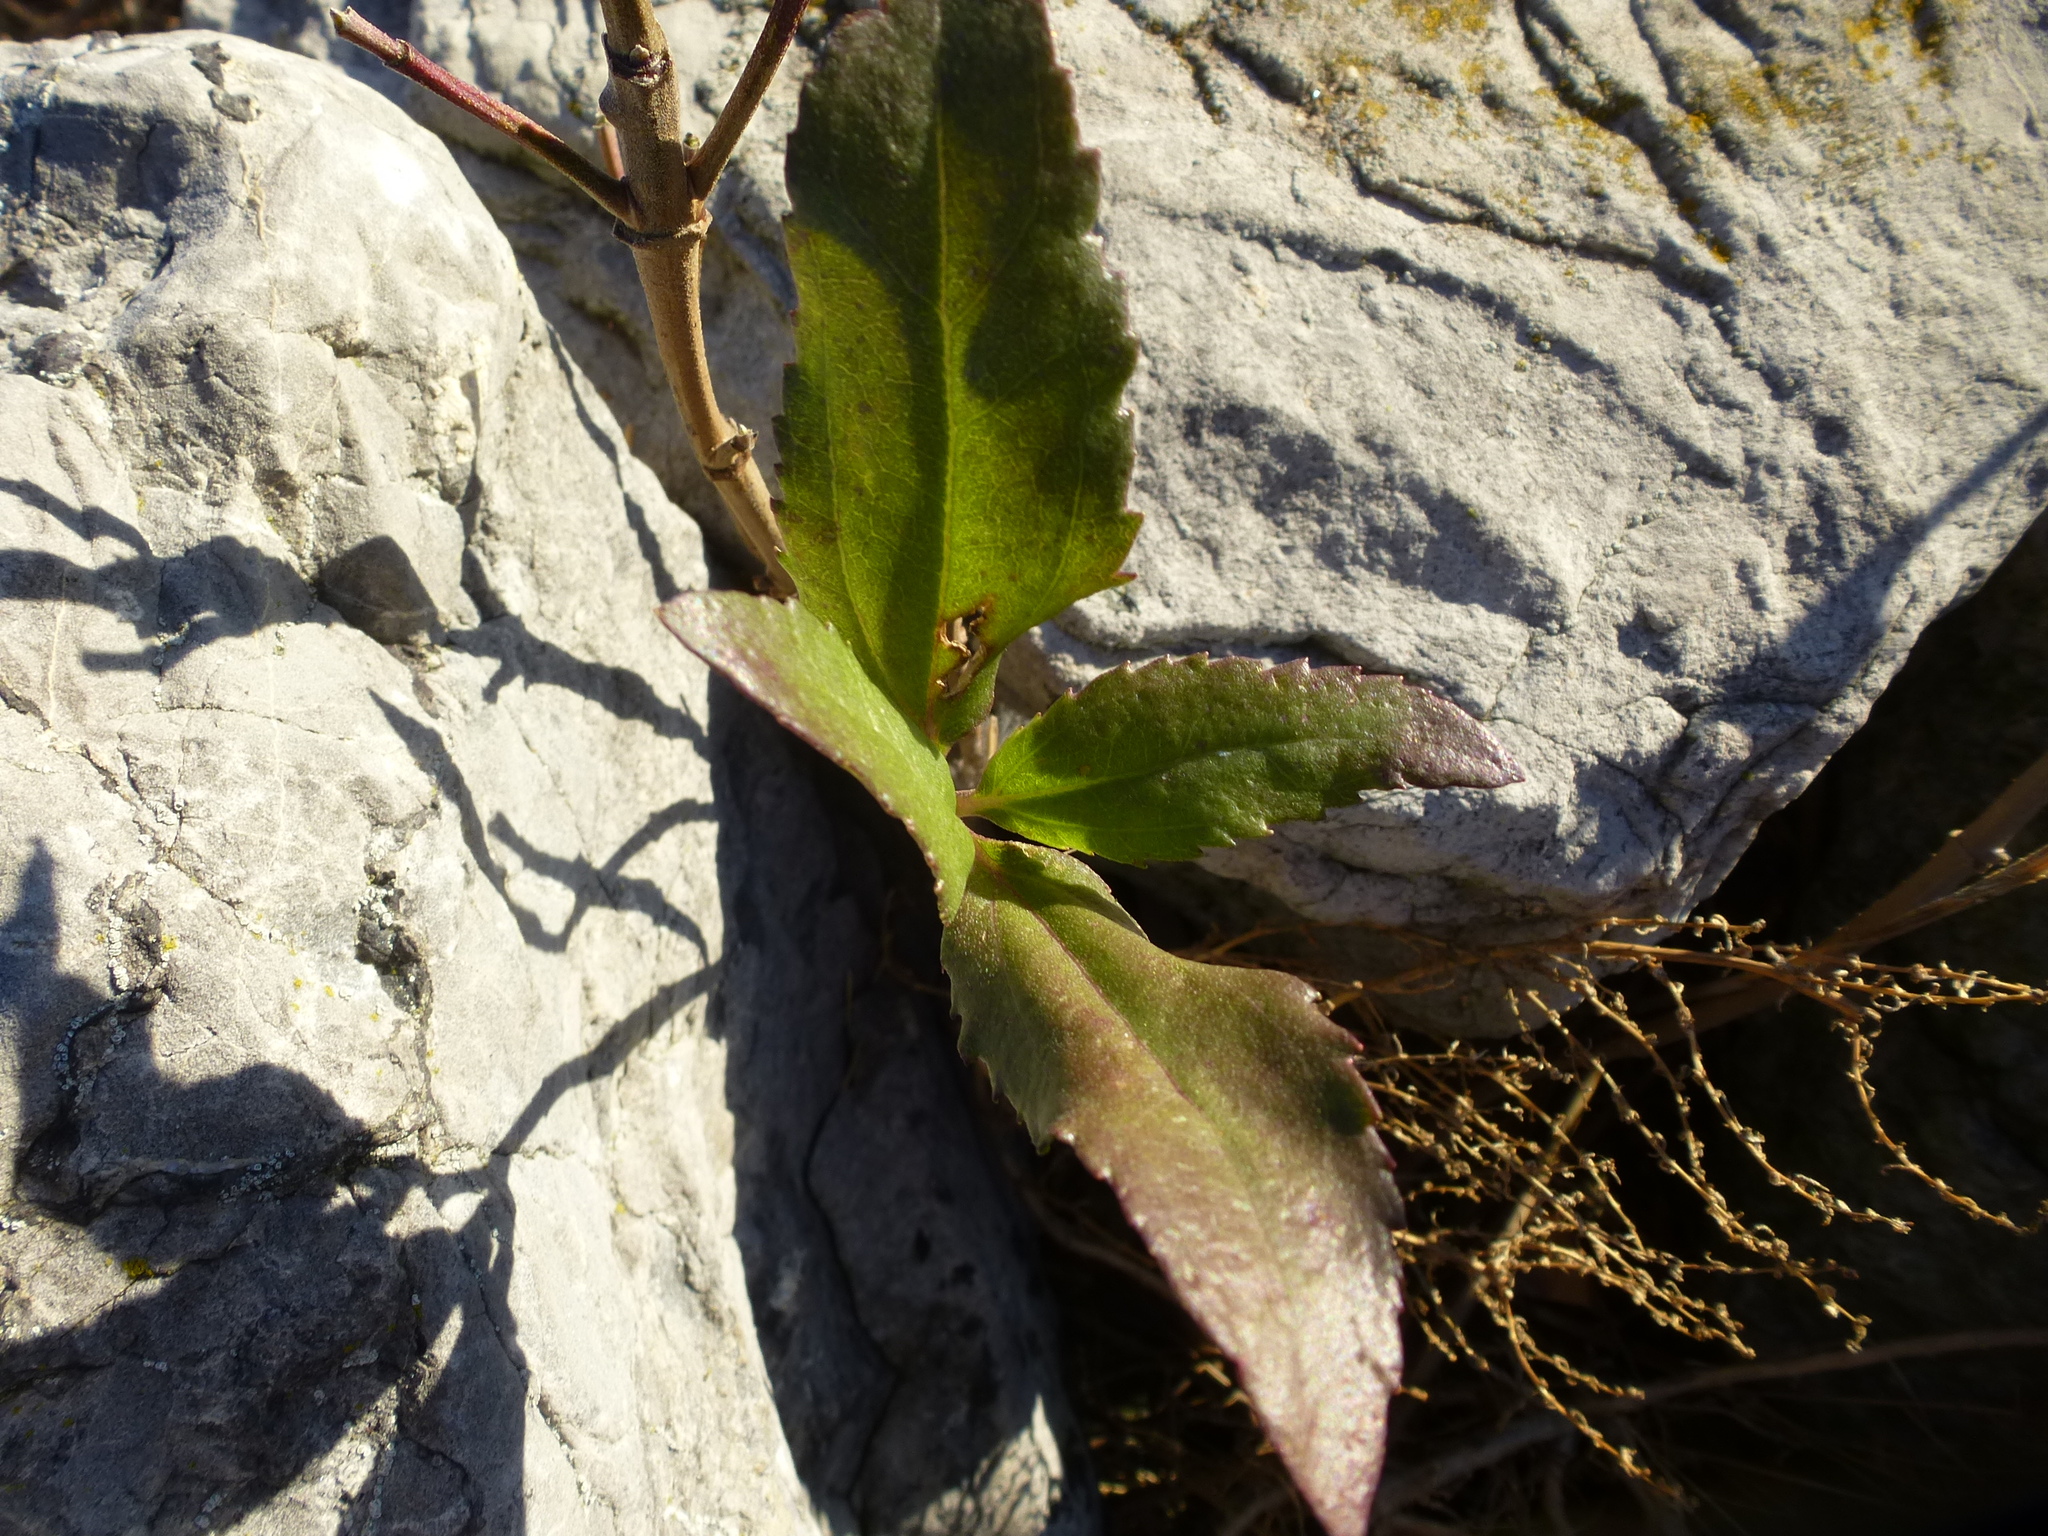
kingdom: Plantae
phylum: Tracheophyta
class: Magnoliopsida
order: Asterales
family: Asteraceae
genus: Iva
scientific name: Iva frutescens
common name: Big-leaved marsh-elder
